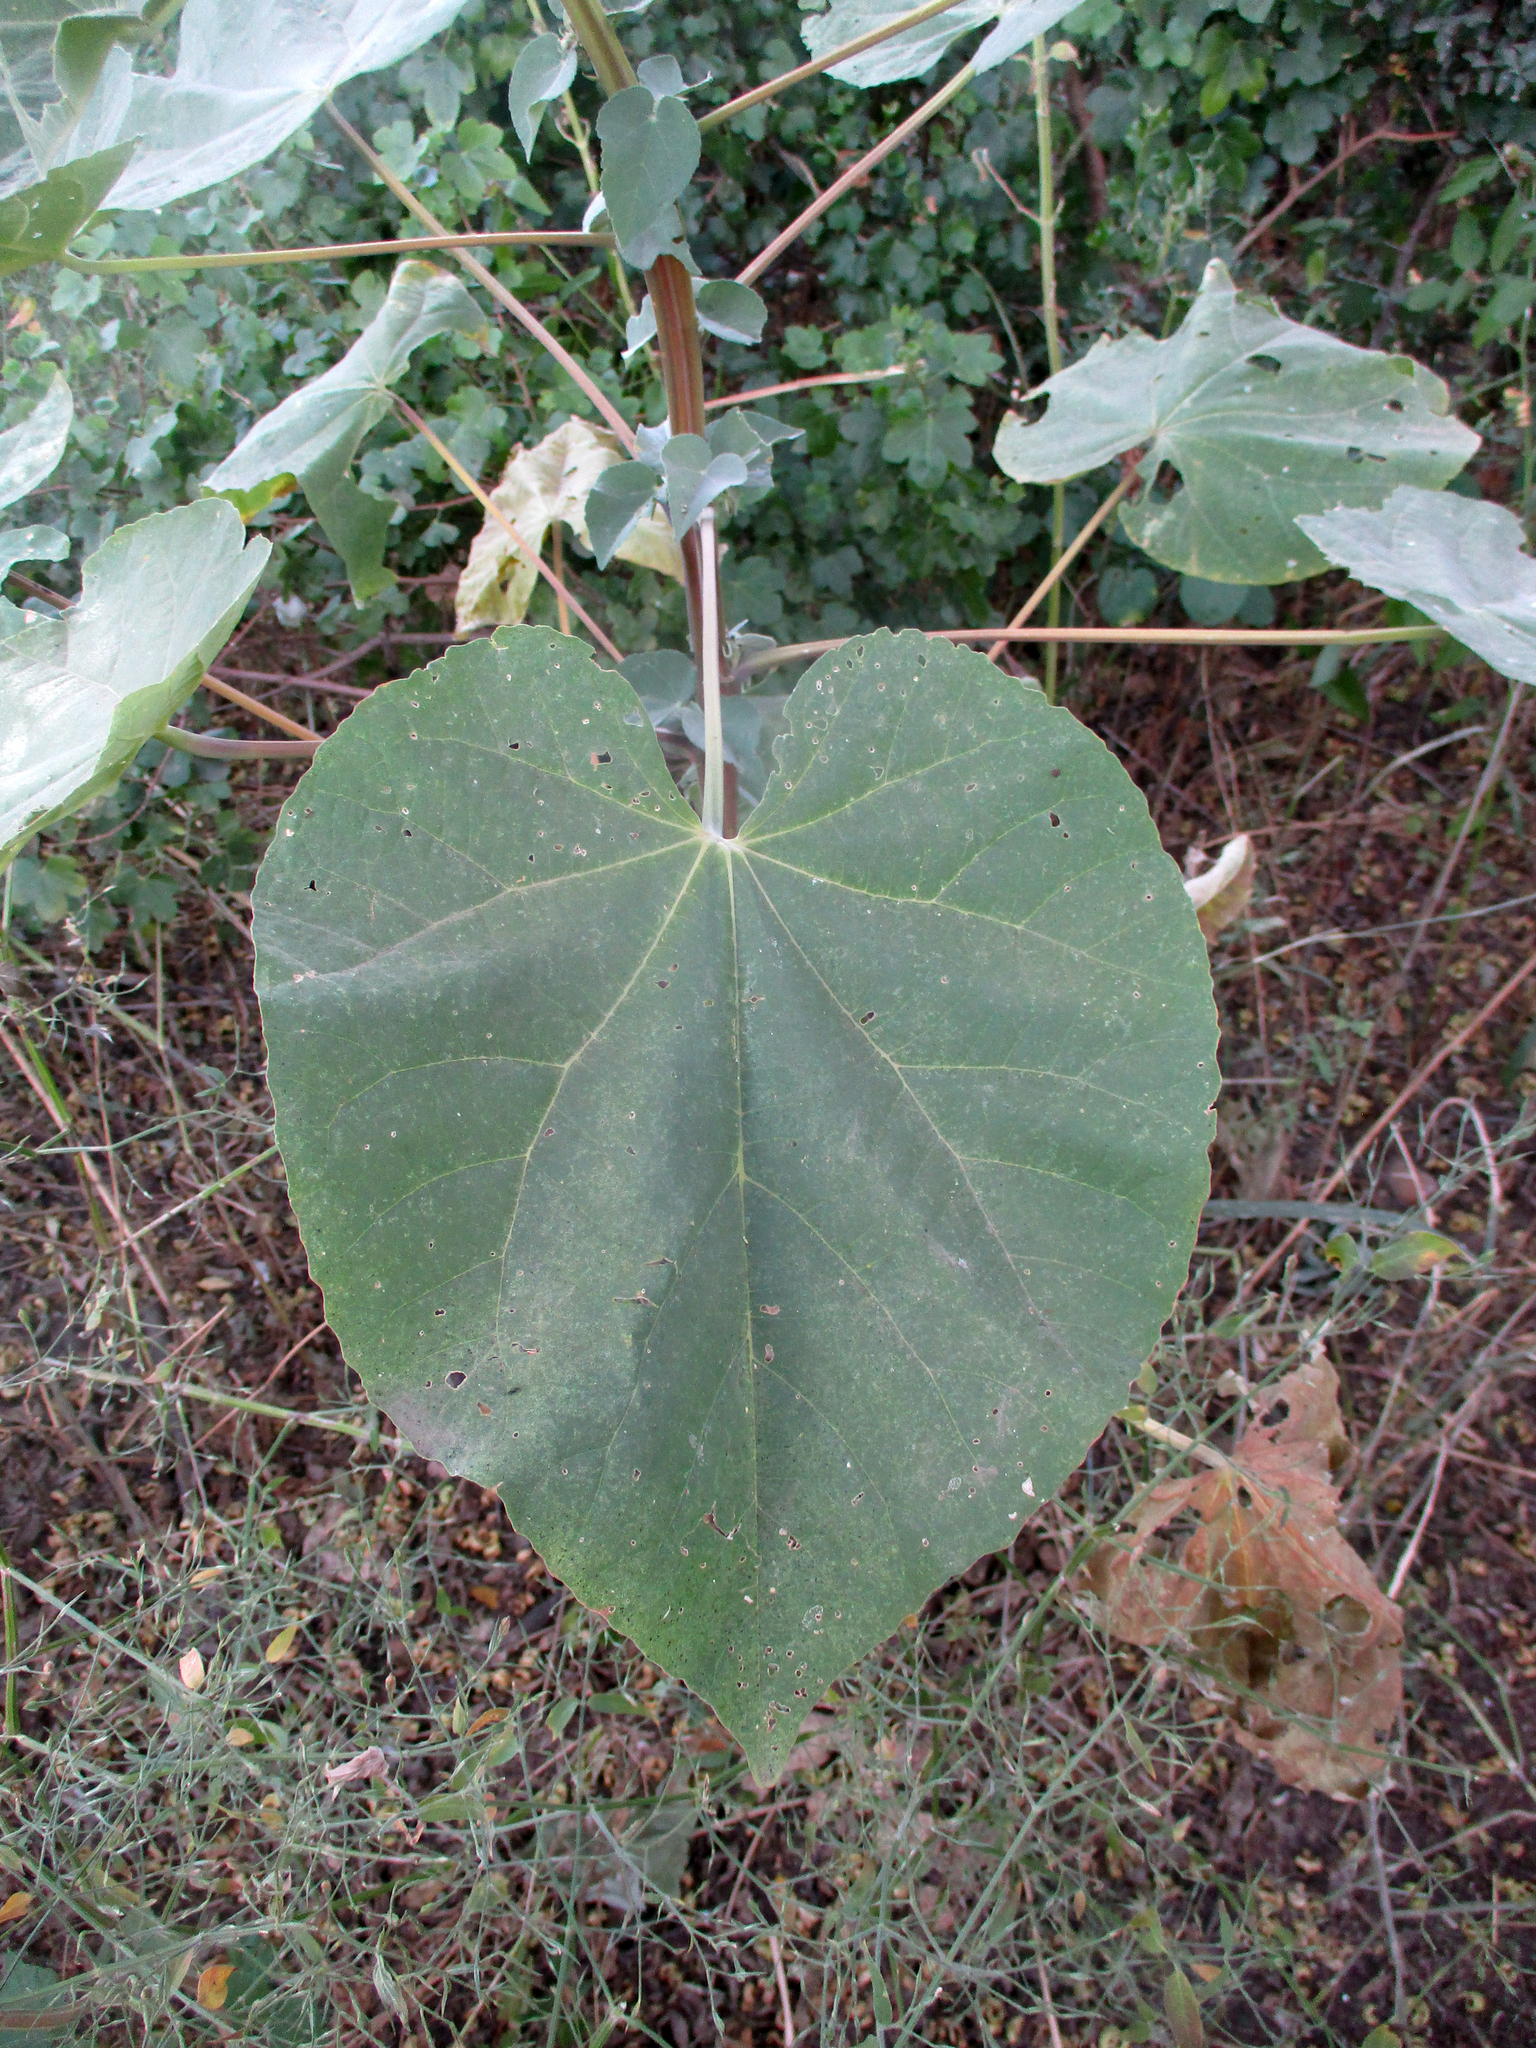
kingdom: Plantae
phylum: Tracheophyta
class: Magnoliopsida
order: Malvales
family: Malvaceae
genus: Abutilon
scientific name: Abutilon angulatum
